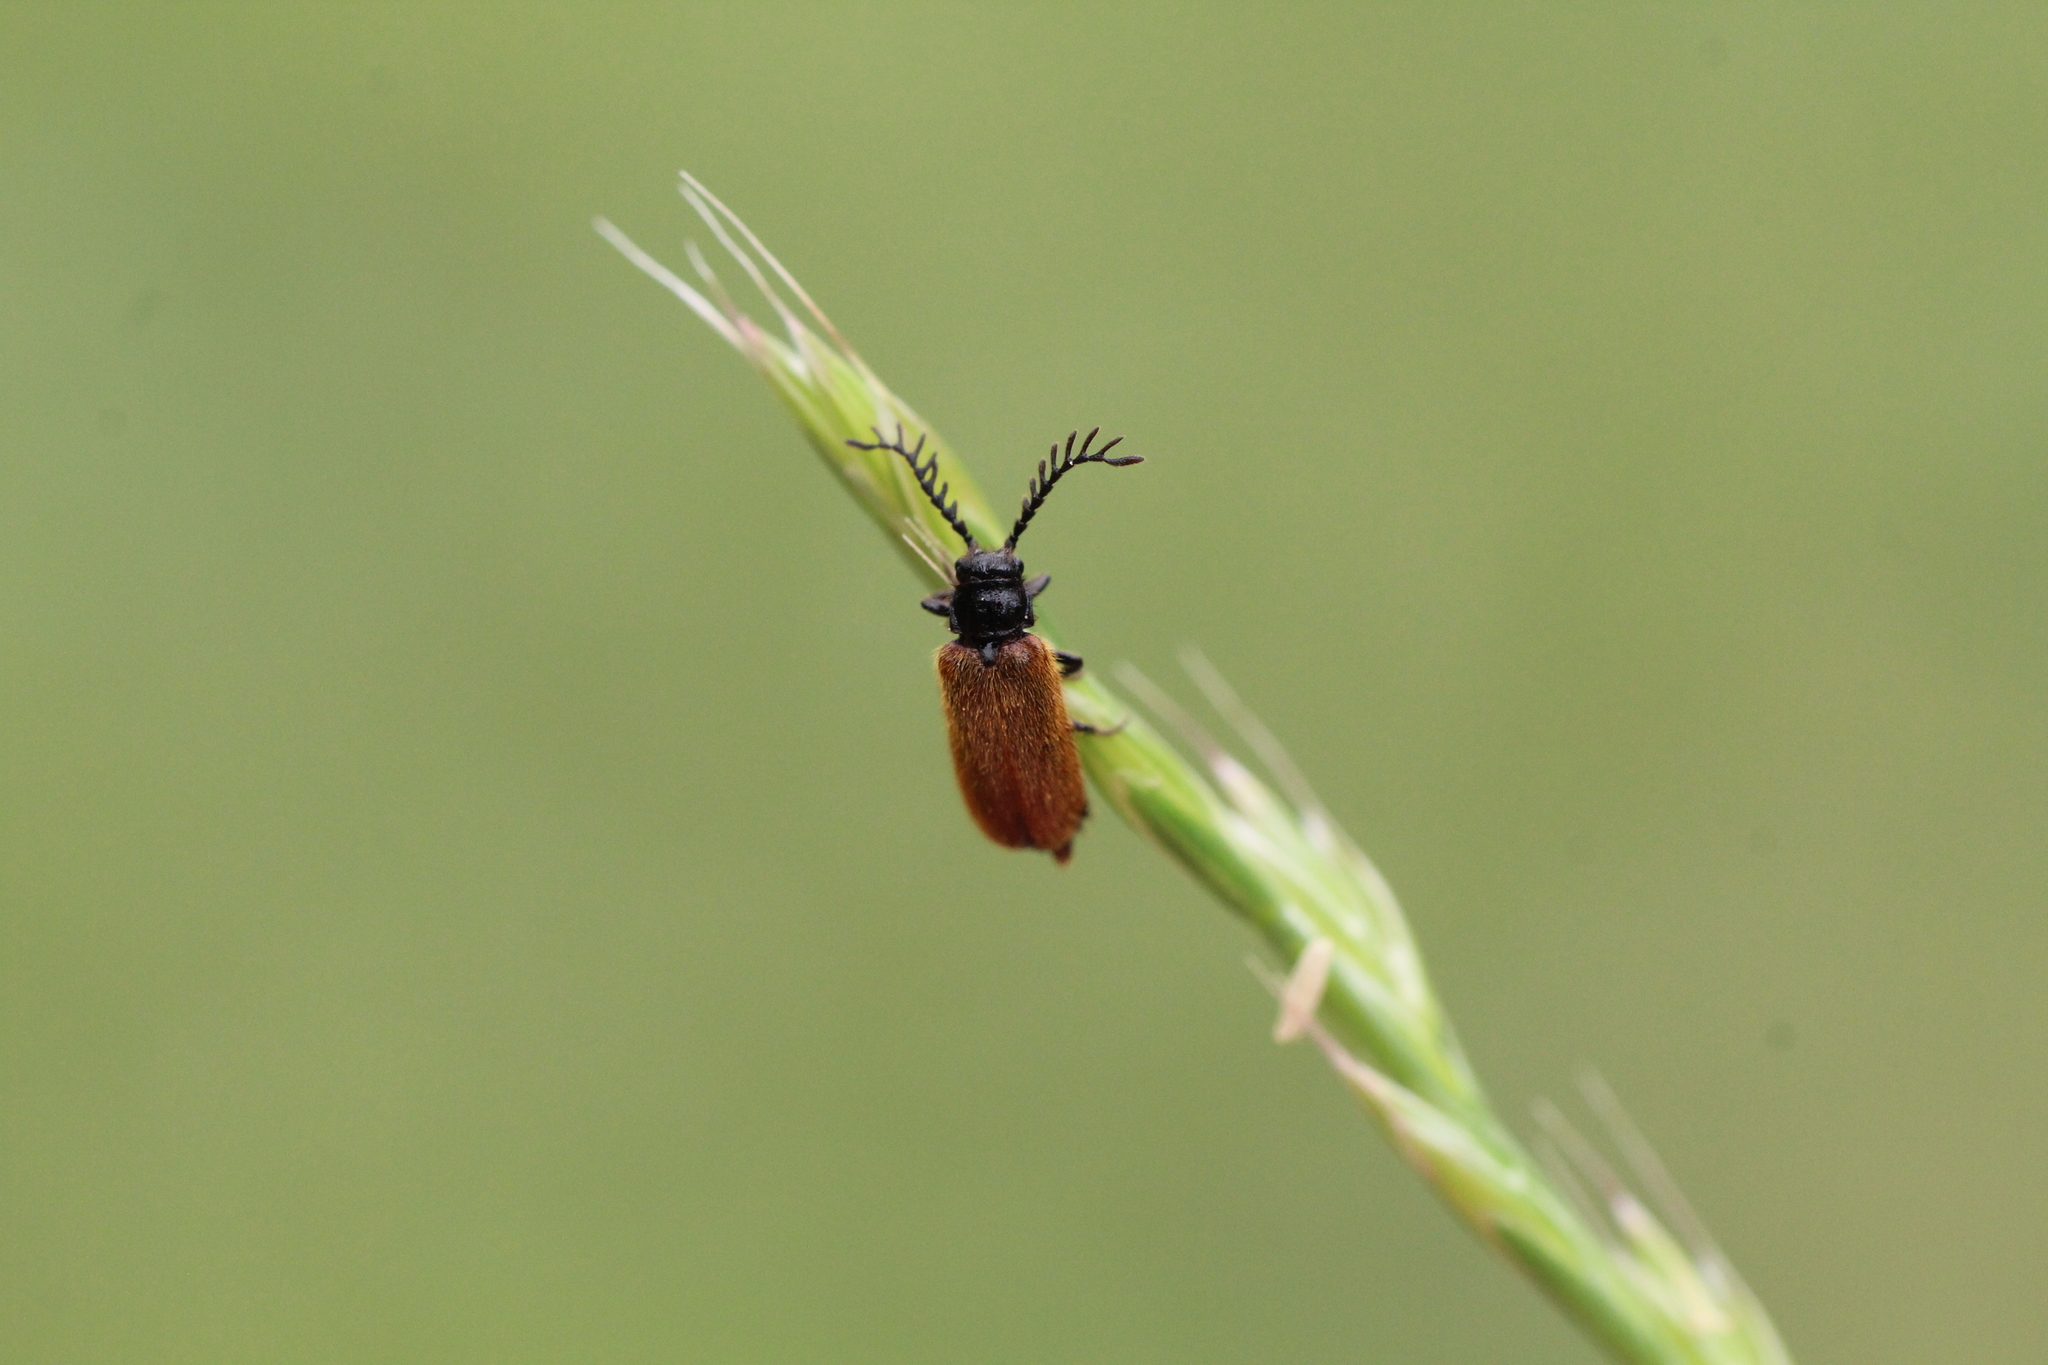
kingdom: Animalia
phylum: Arthropoda
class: Insecta
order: Coleoptera
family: Drilidae
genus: Drilus
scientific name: Drilus flavescens
